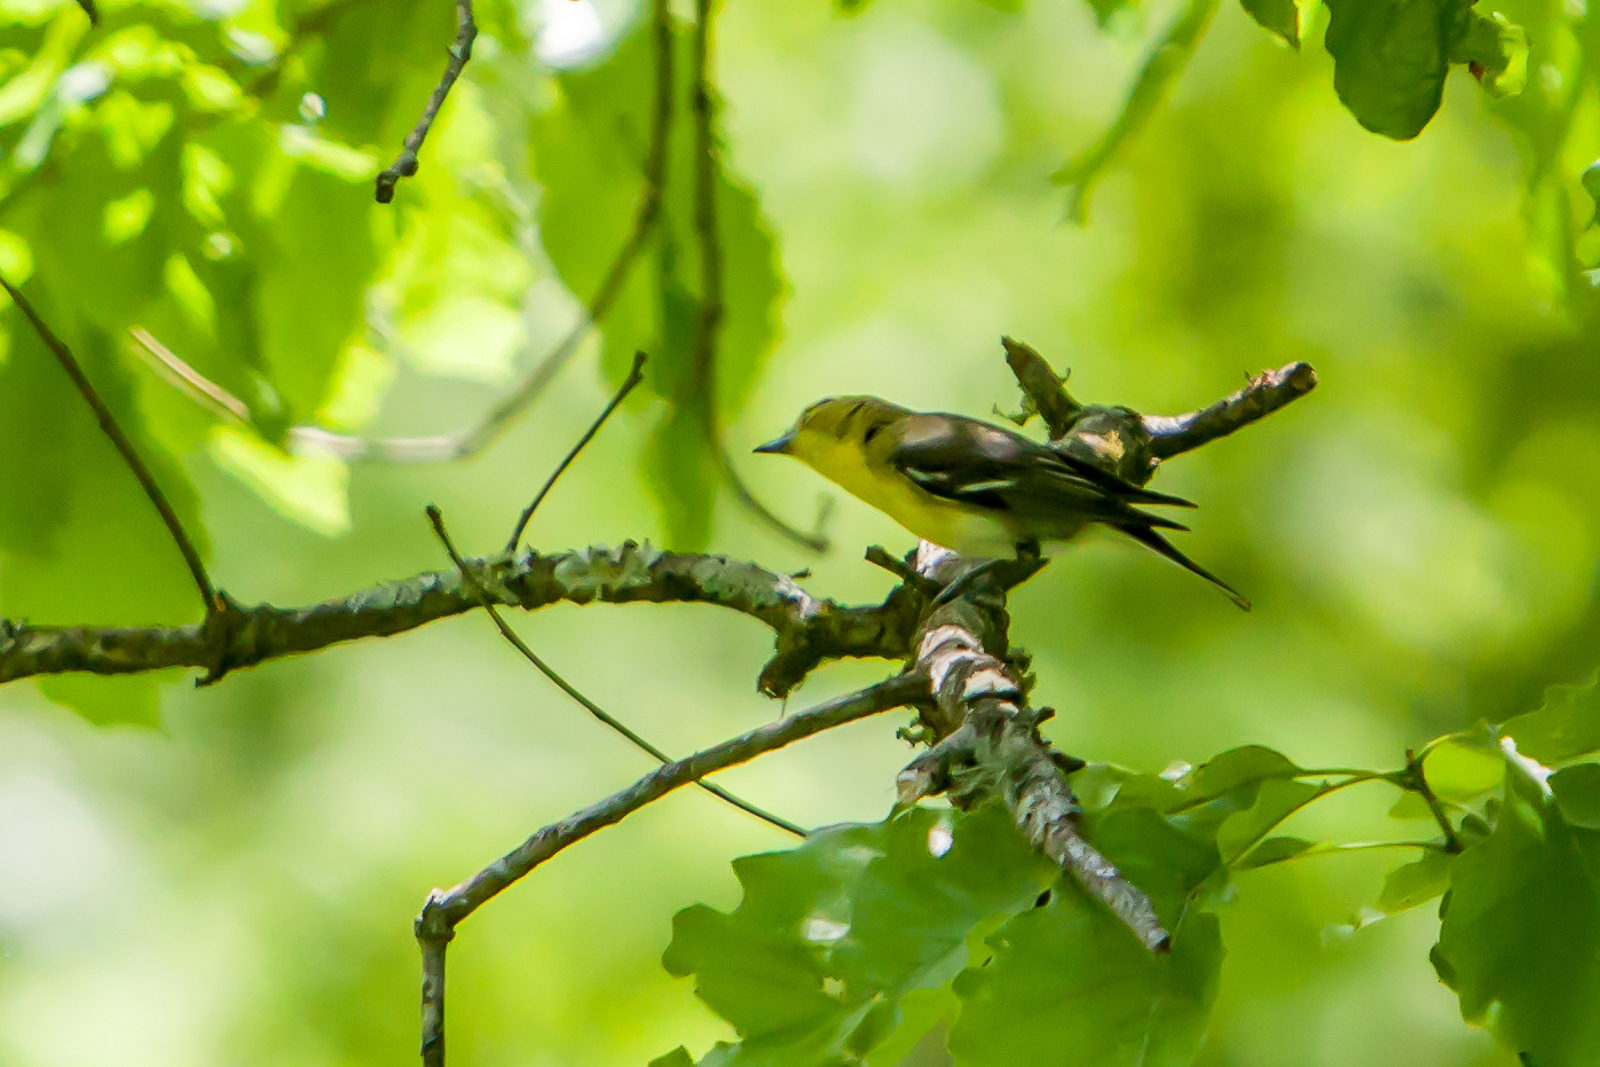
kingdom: Animalia
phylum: Chordata
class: Aves
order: Passeriformes
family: Vireonidae
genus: Vireo
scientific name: Vireo flavifrons
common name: Yellow-throated vireo
